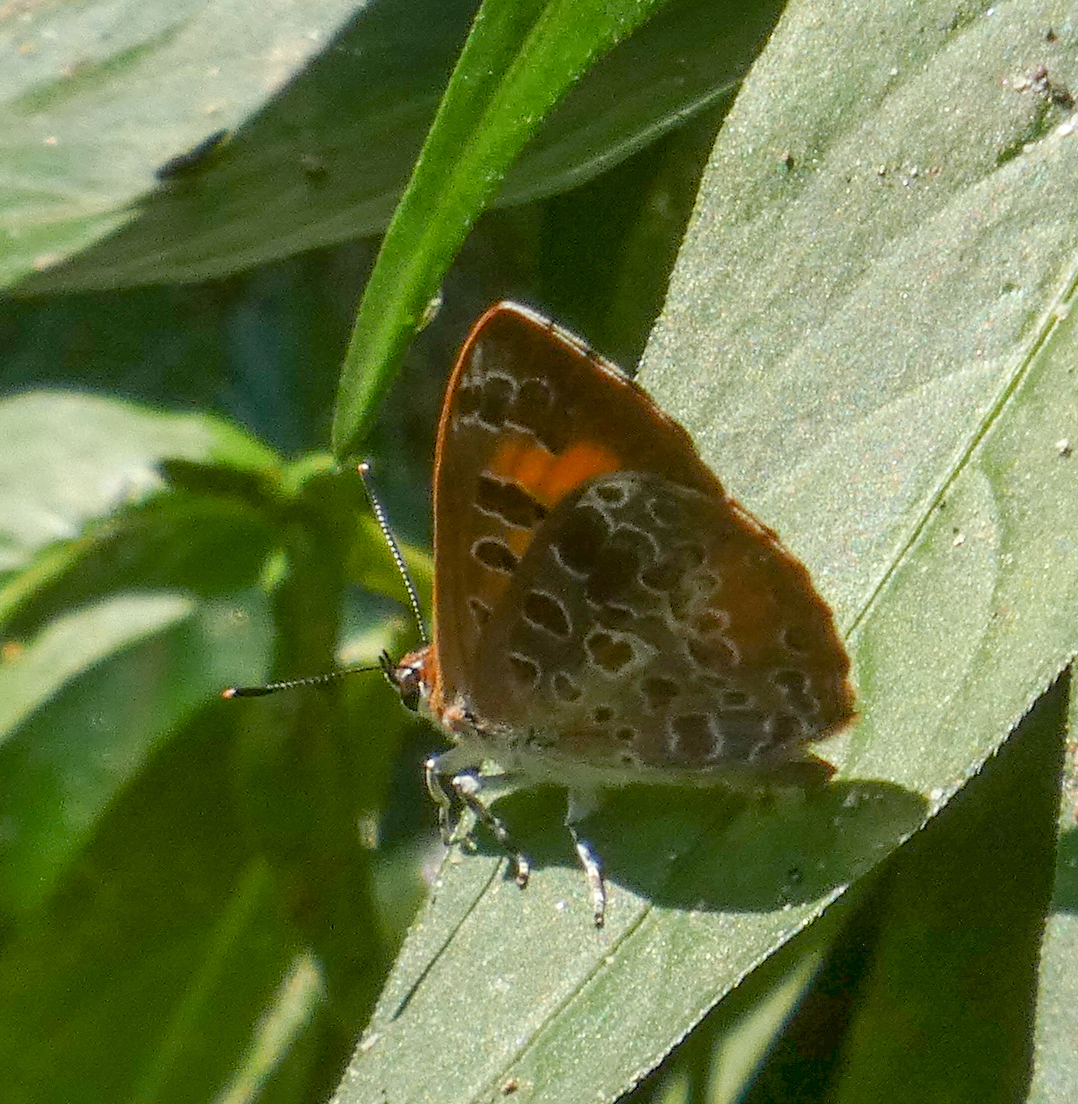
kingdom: Animalia
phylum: Arthropoda
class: Insecta
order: Lepidoptera
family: Lycaenidae
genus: Feniseca
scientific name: Feniseca tarquinius
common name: Harvester
